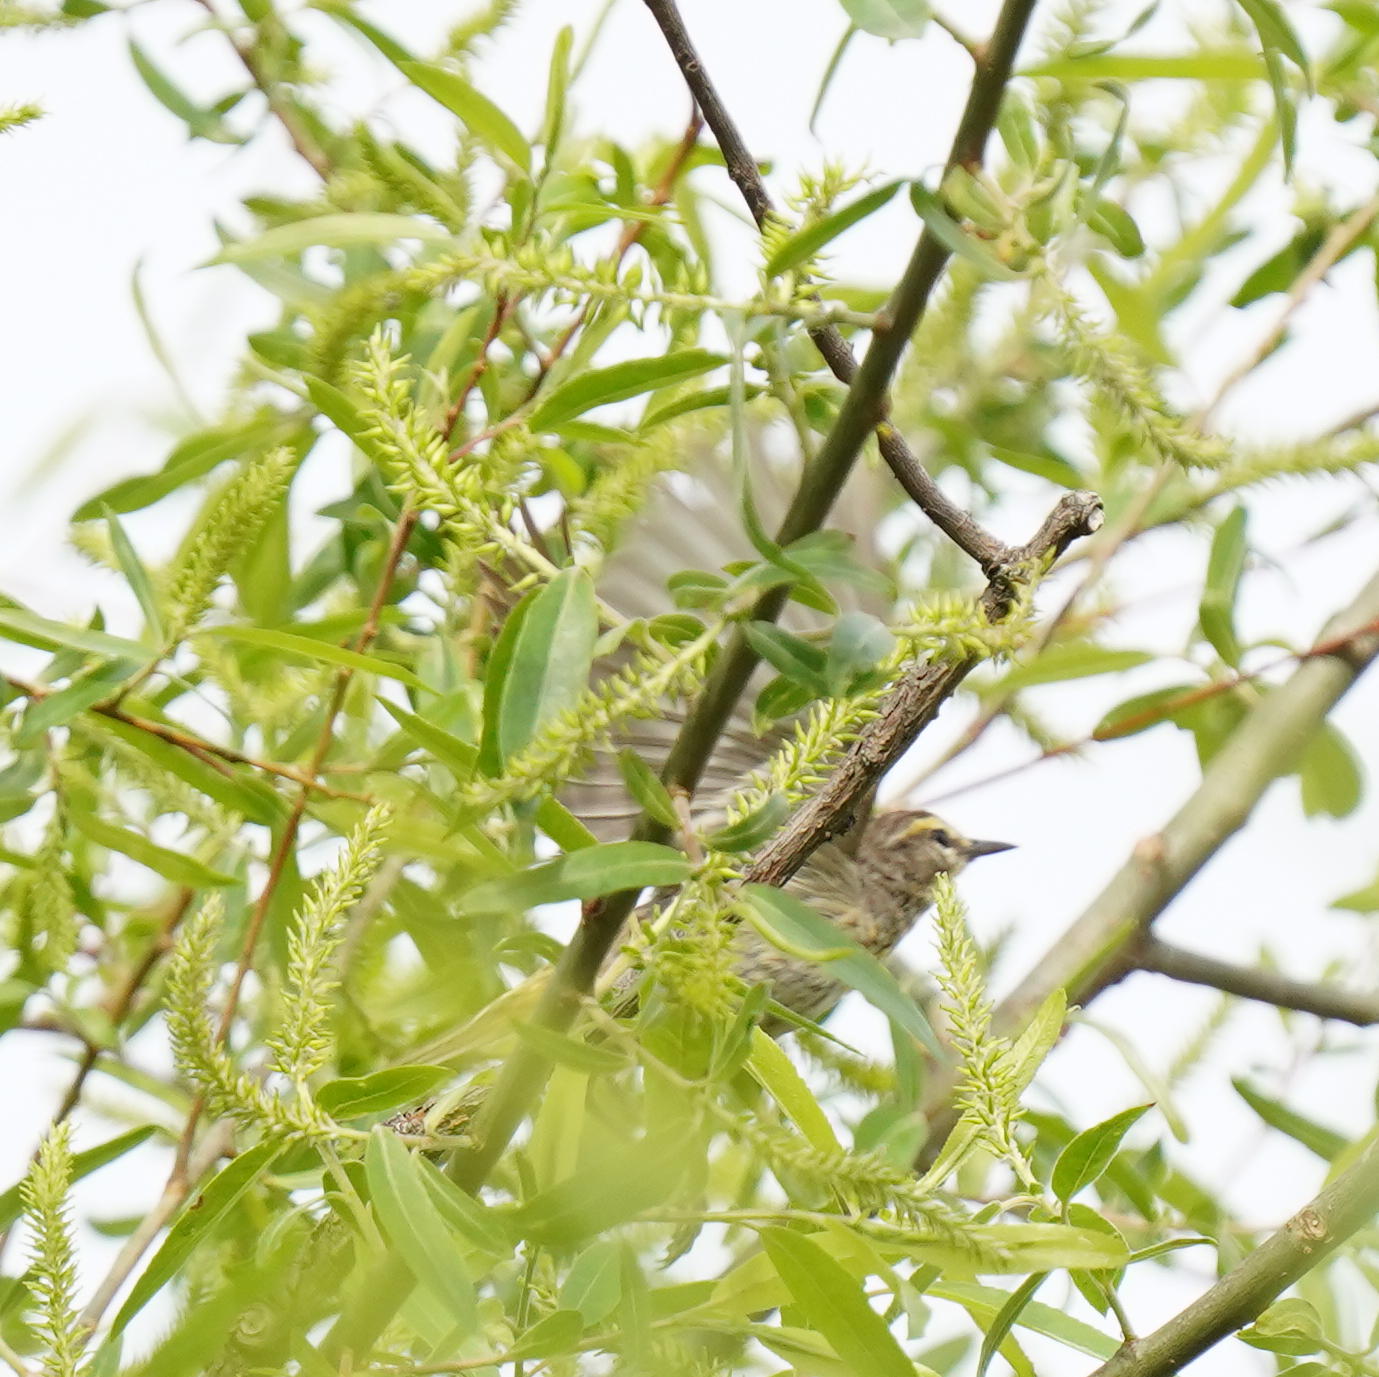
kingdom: Animalia
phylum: Chordata
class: Aves
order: Passeriformes
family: Parulidae
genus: Setophaga
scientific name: Setophaga palmarum
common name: Palm warbler
